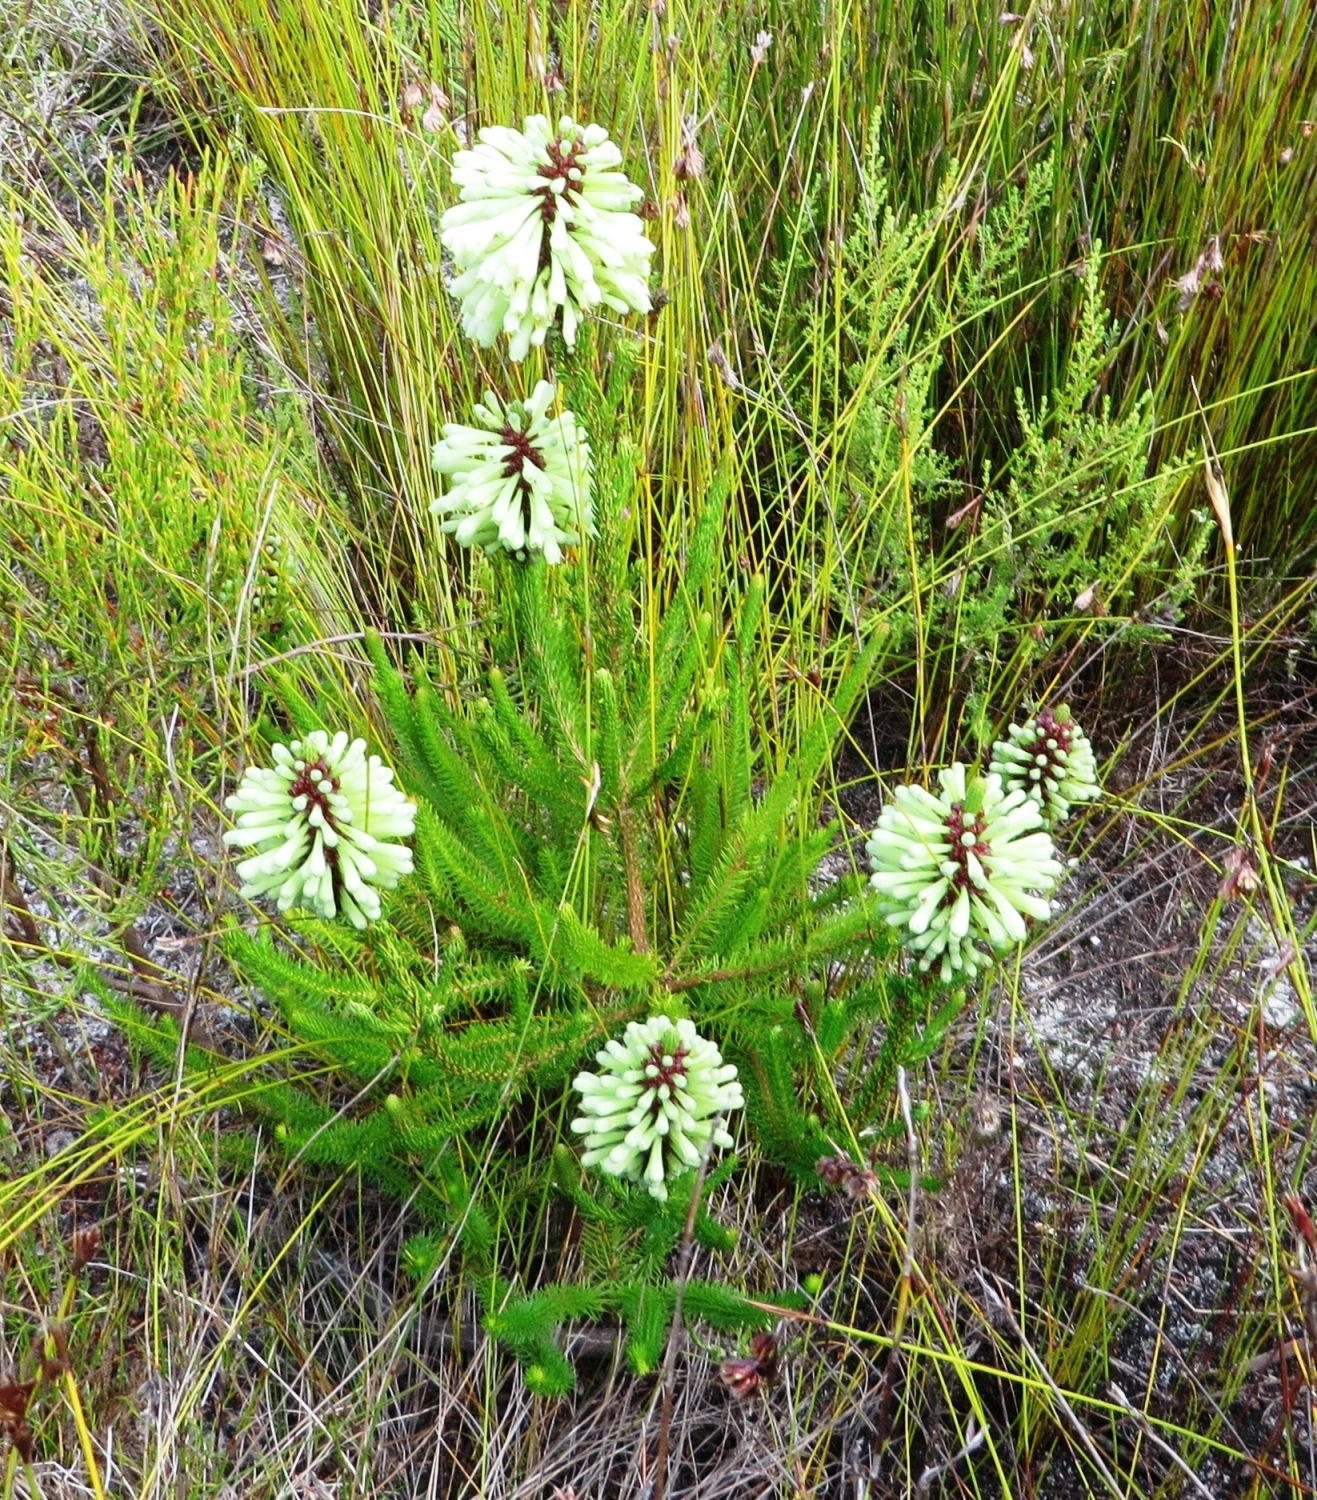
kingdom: Plantae
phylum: Tracheophyta
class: Magnoliopsida
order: Ericales
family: Ericaceae
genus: Erica
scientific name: Erica sessiliflora
